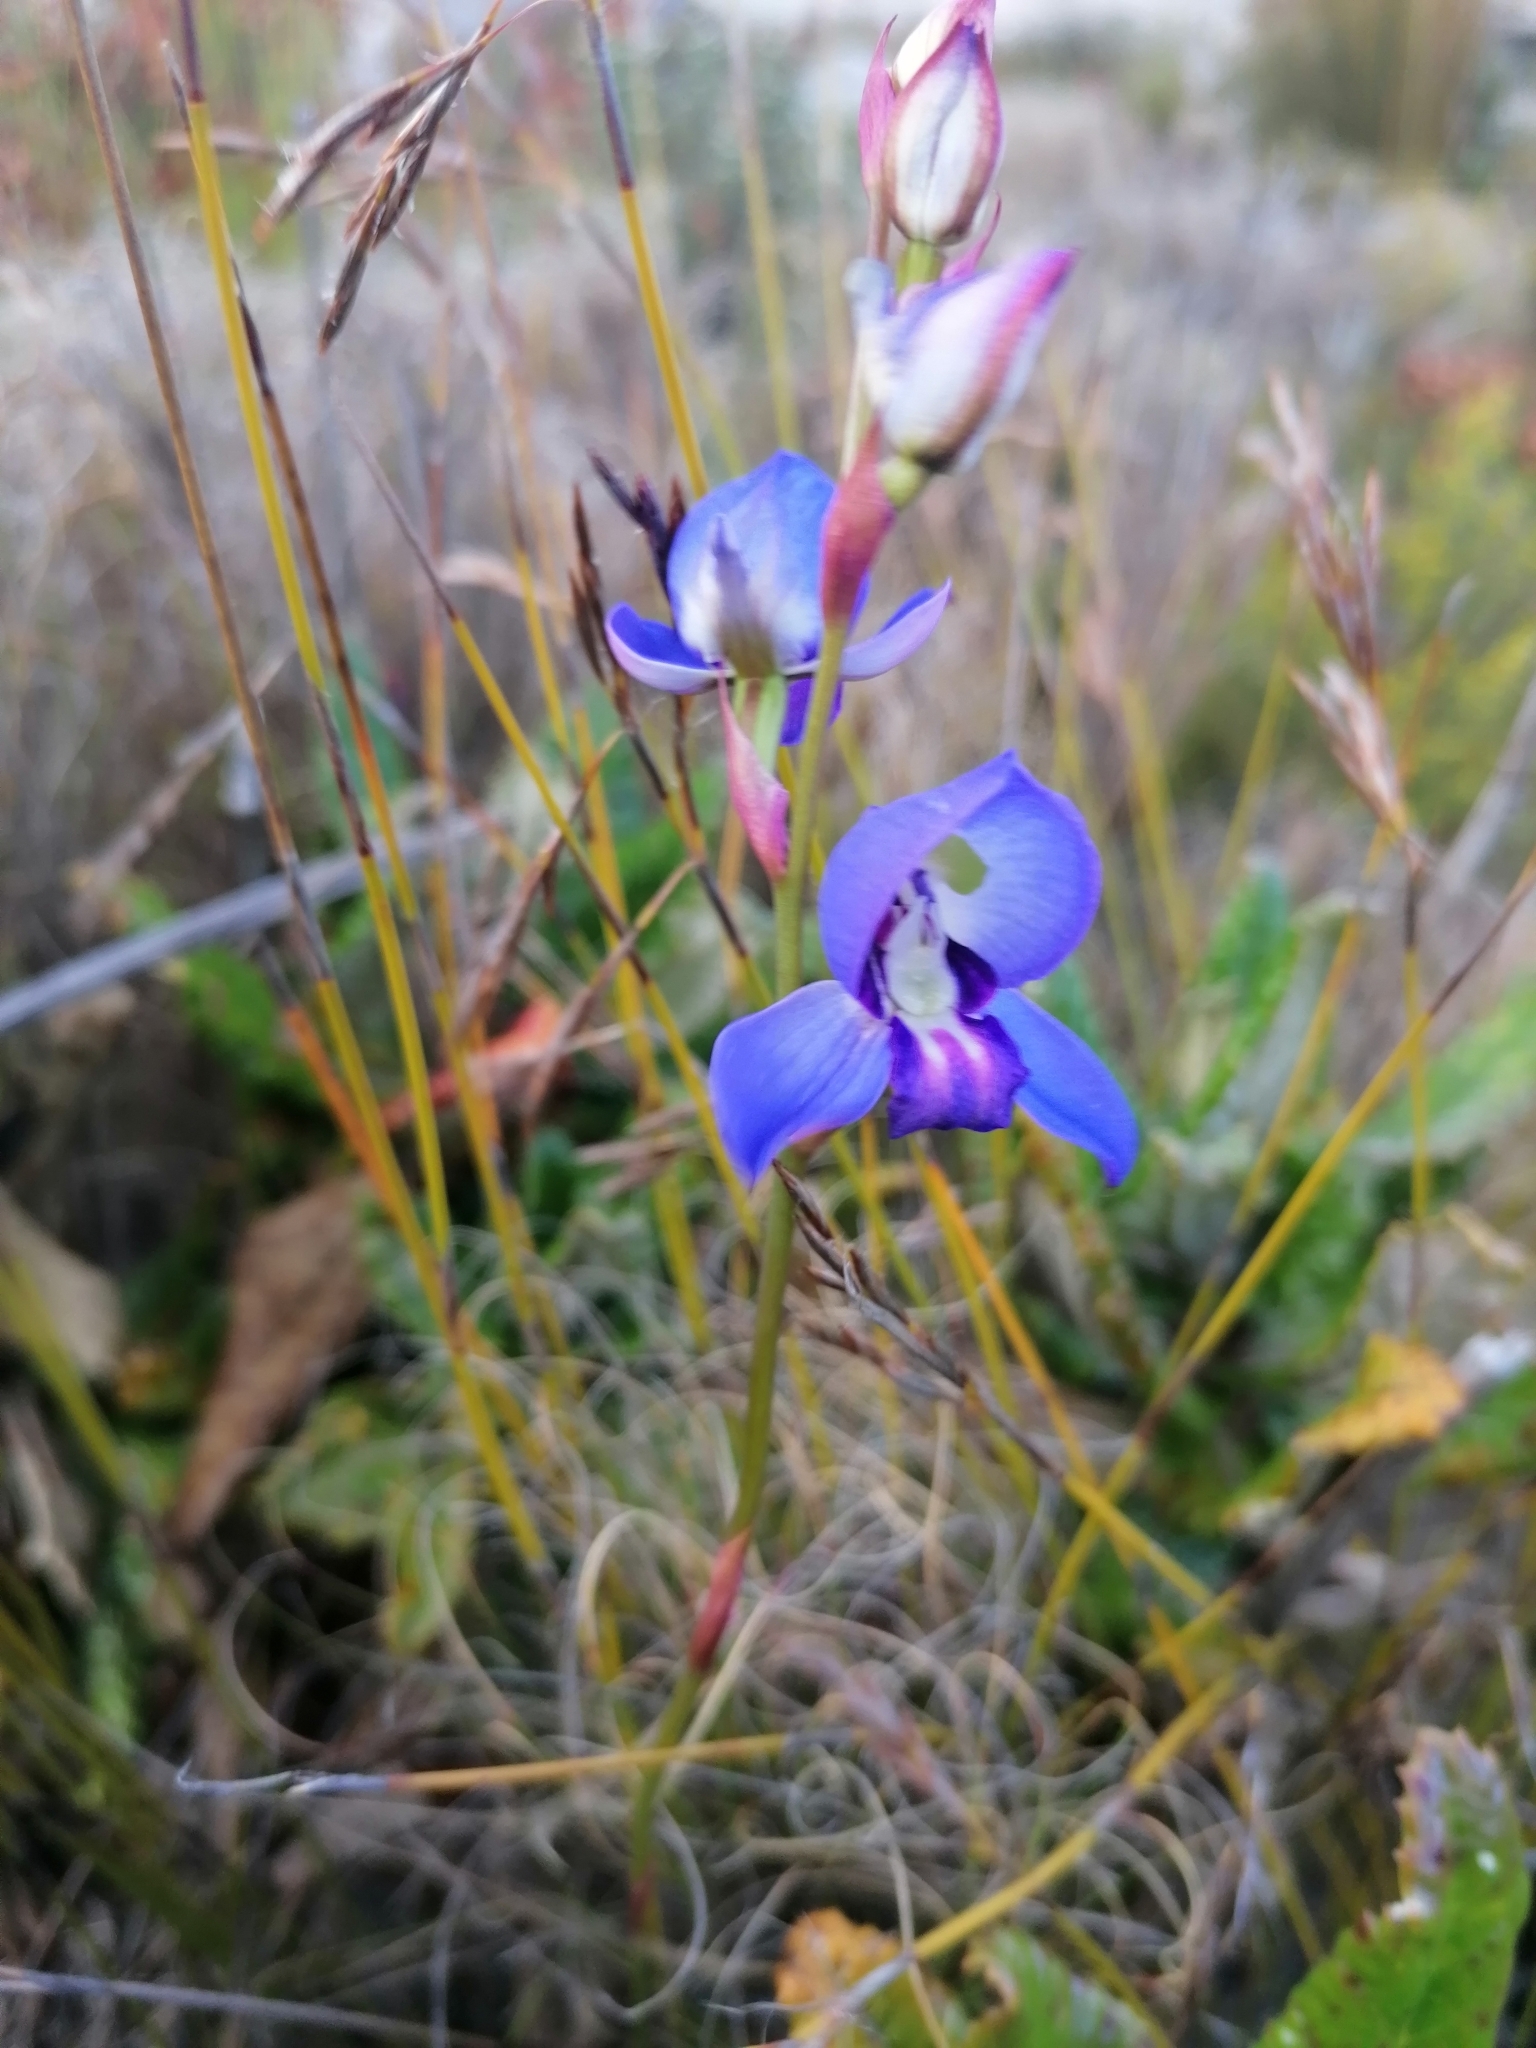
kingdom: Plantae
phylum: Tracheophyta
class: Liliopsida
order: Asparagales
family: Orchidaceae
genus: Disa
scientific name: Disa graminifolia
